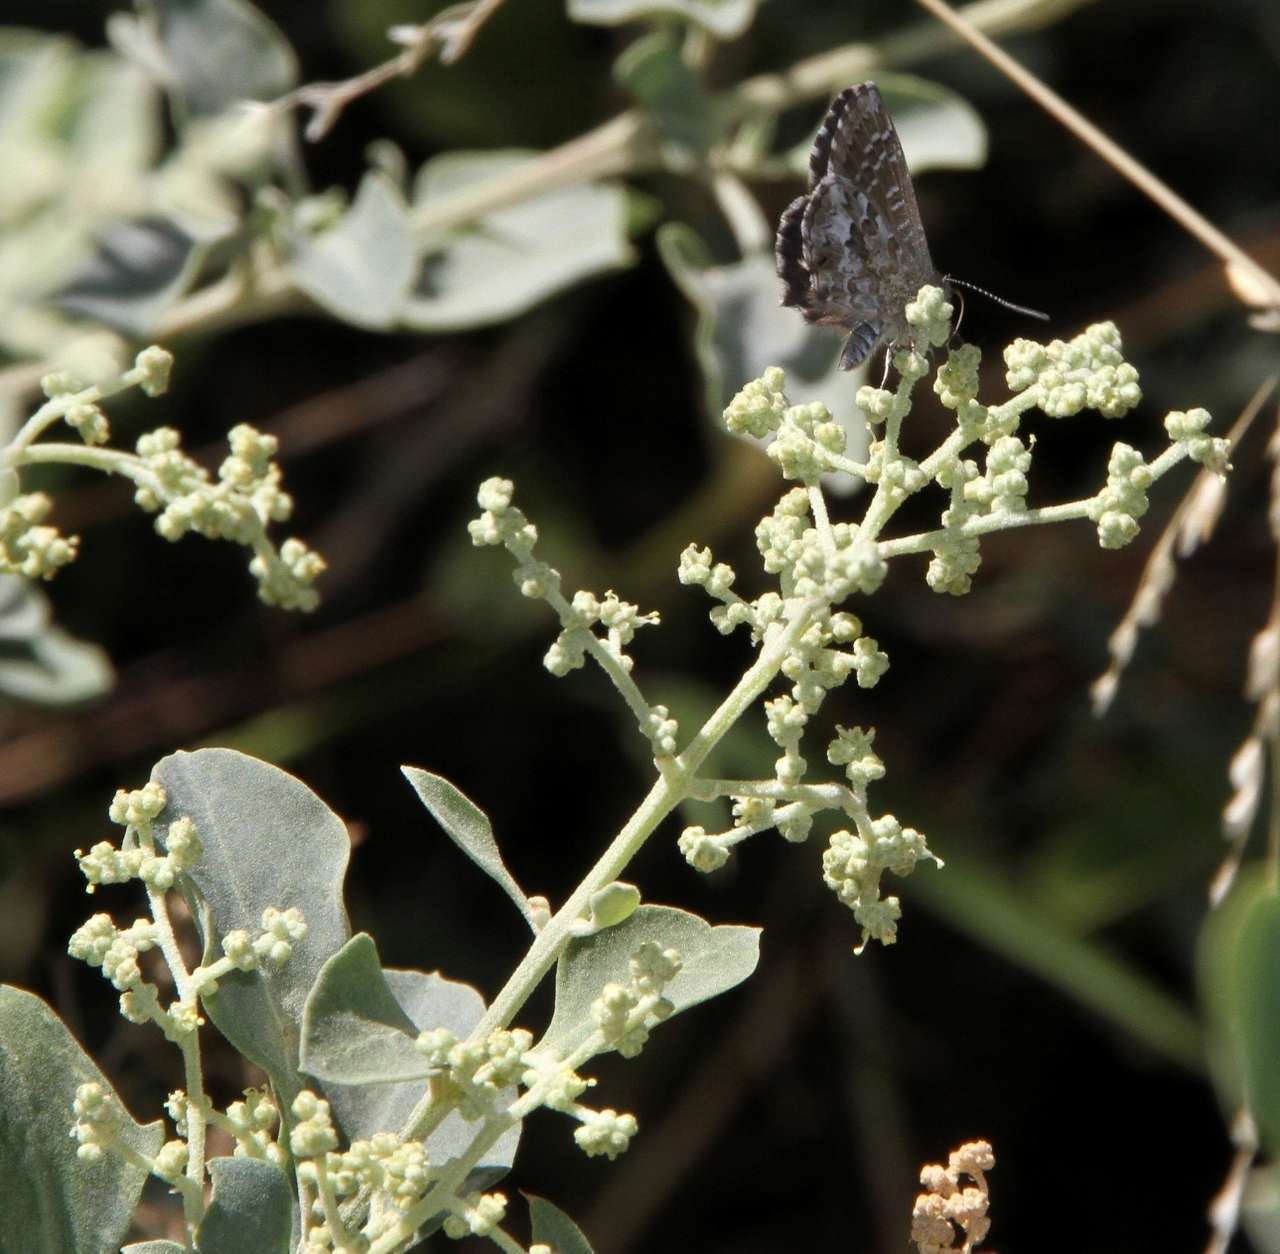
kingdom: Animalia
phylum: Arthropoda
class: Insecta
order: Lepidoptera
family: Lycaenidae
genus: Theclinesthes
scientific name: Theclinesthes serpentata
